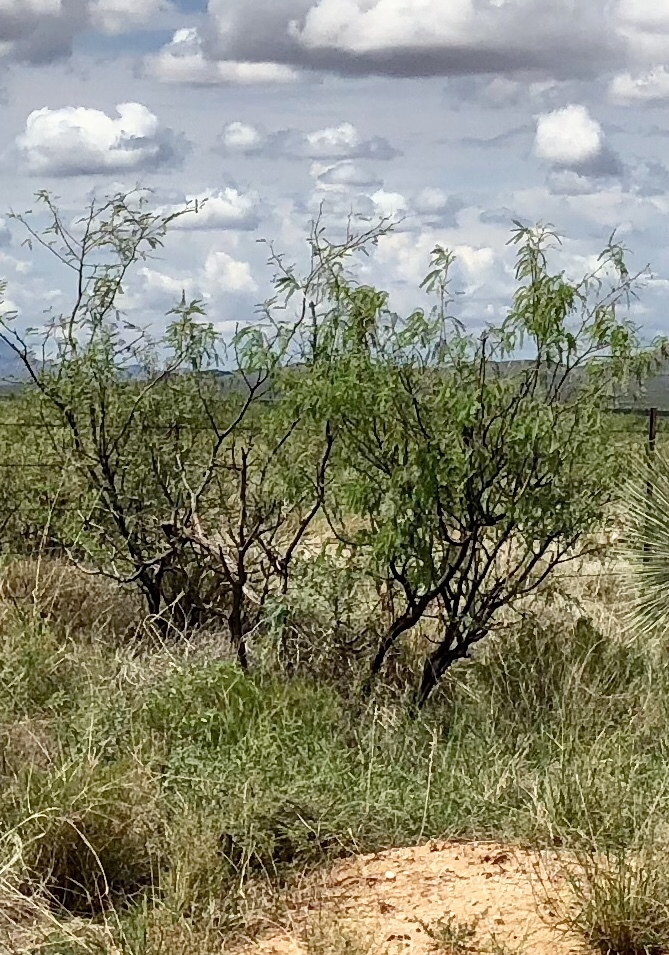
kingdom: Plantae
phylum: Tracheophyta
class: Magnoliopsida
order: Fabales
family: Fabaceae
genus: Prosopis
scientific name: Prosopis glandulosa
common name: Honey mesquite
